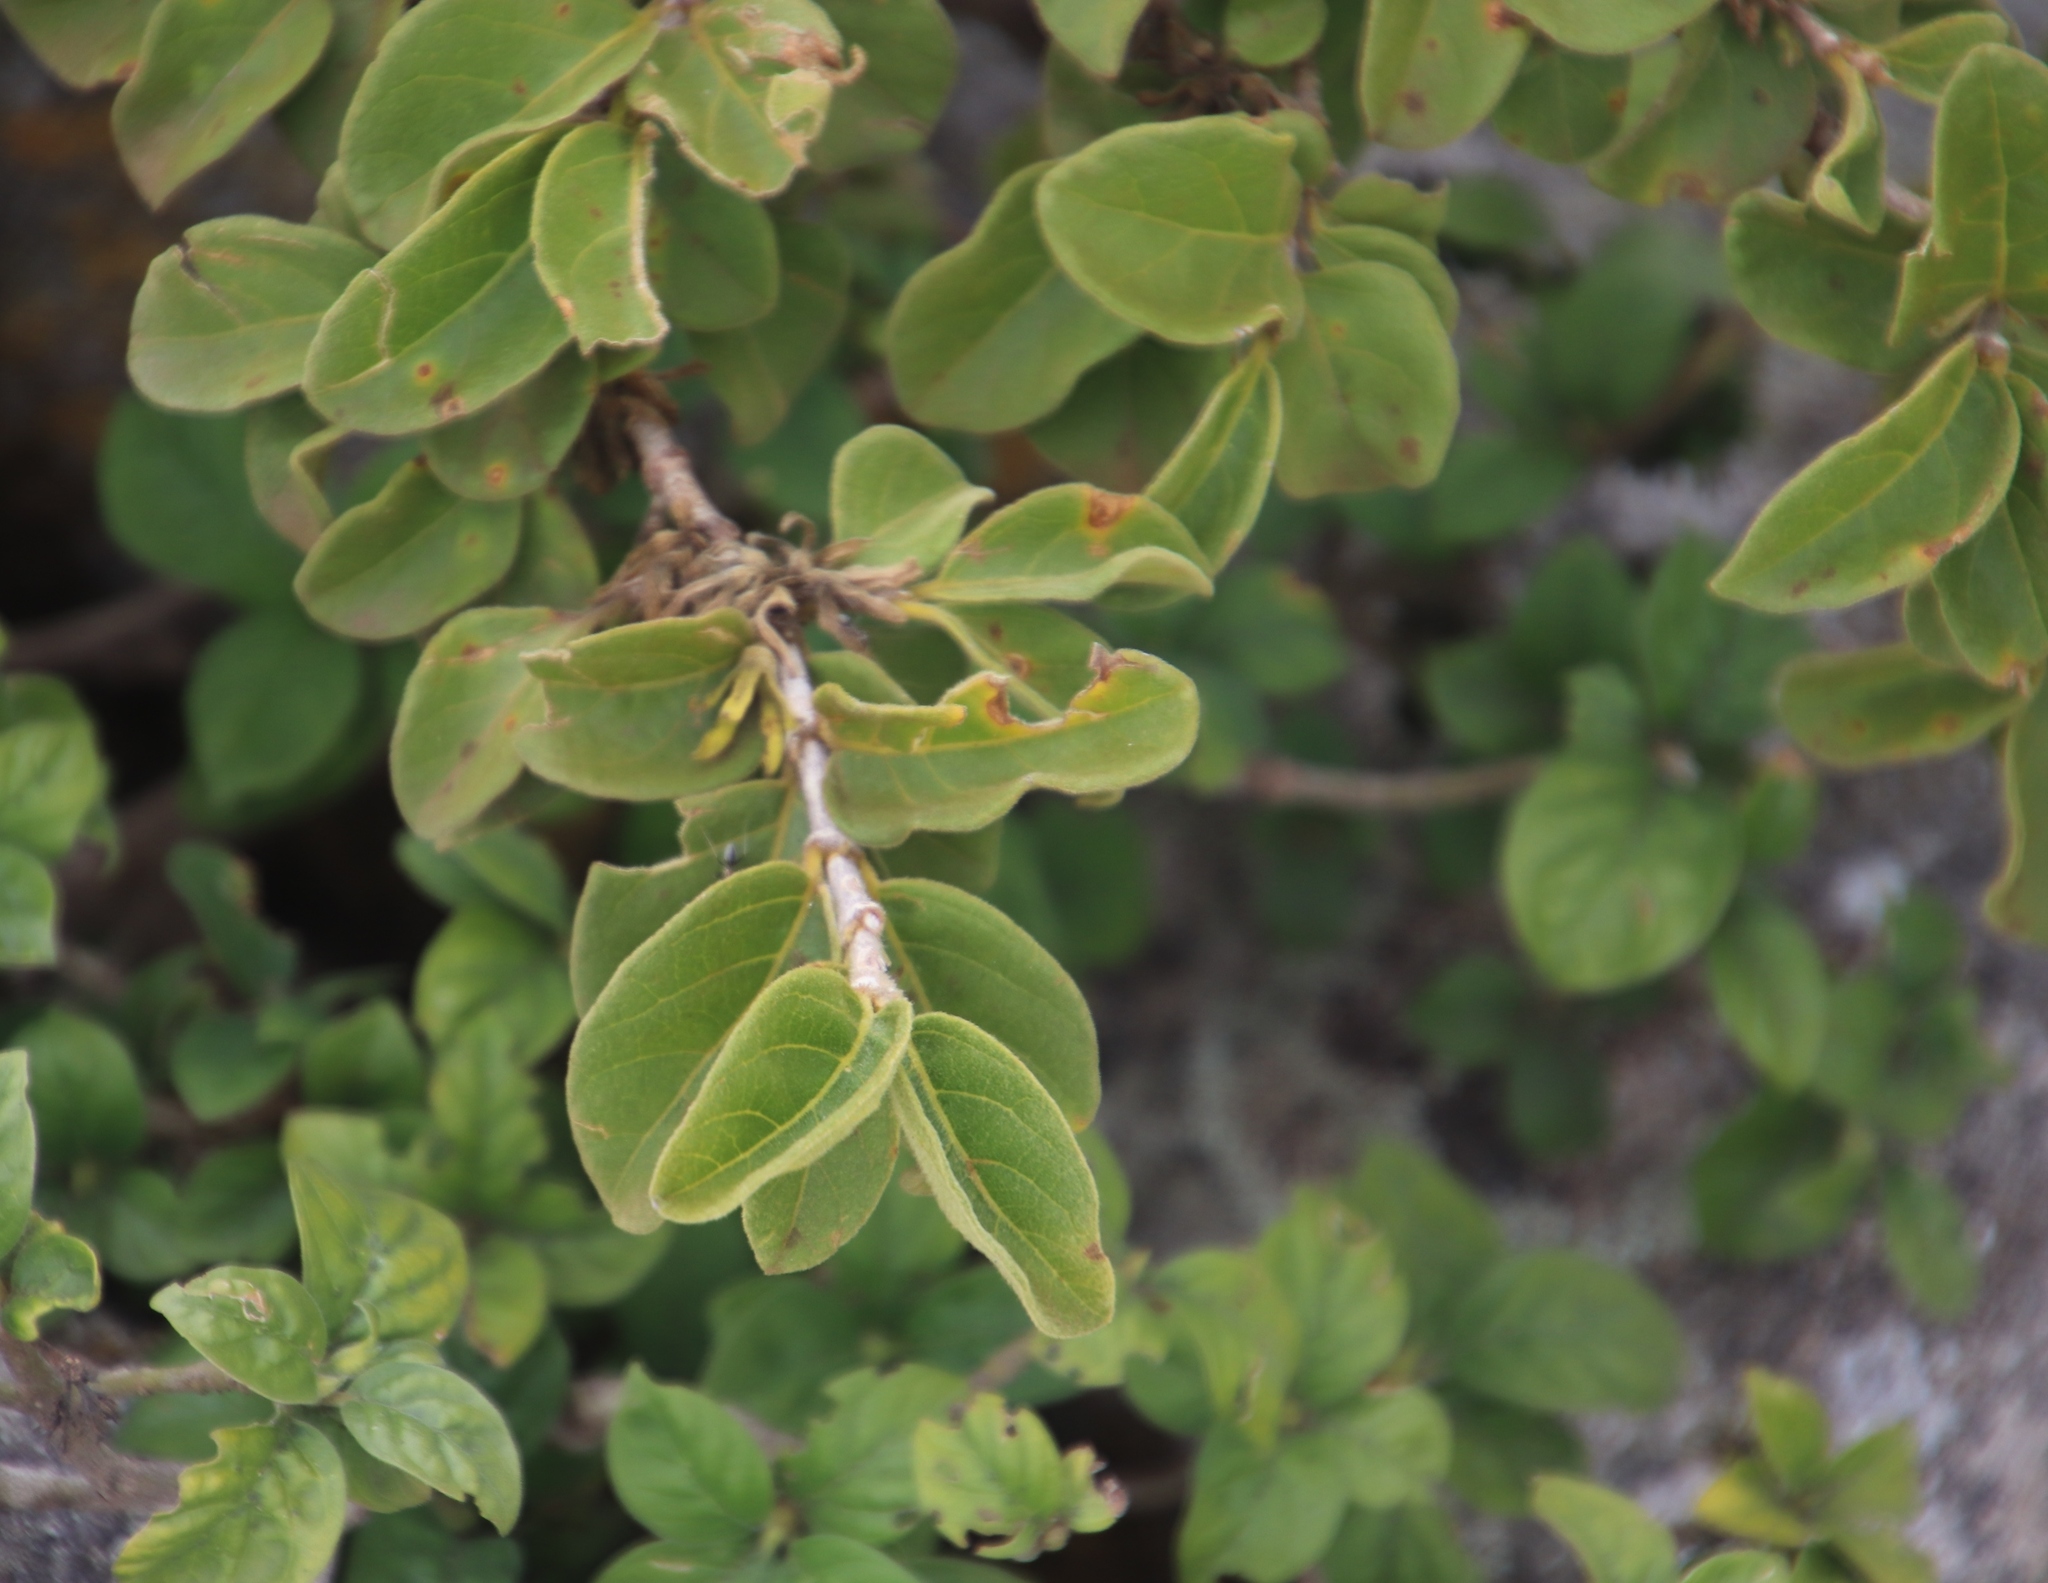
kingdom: Plantae
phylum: Tracheophyta
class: Magnoliopsida
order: Gentianales
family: Rubiaceae
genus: Vangueria
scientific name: Vangueria macrocalyx
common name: Crowned-medlar
